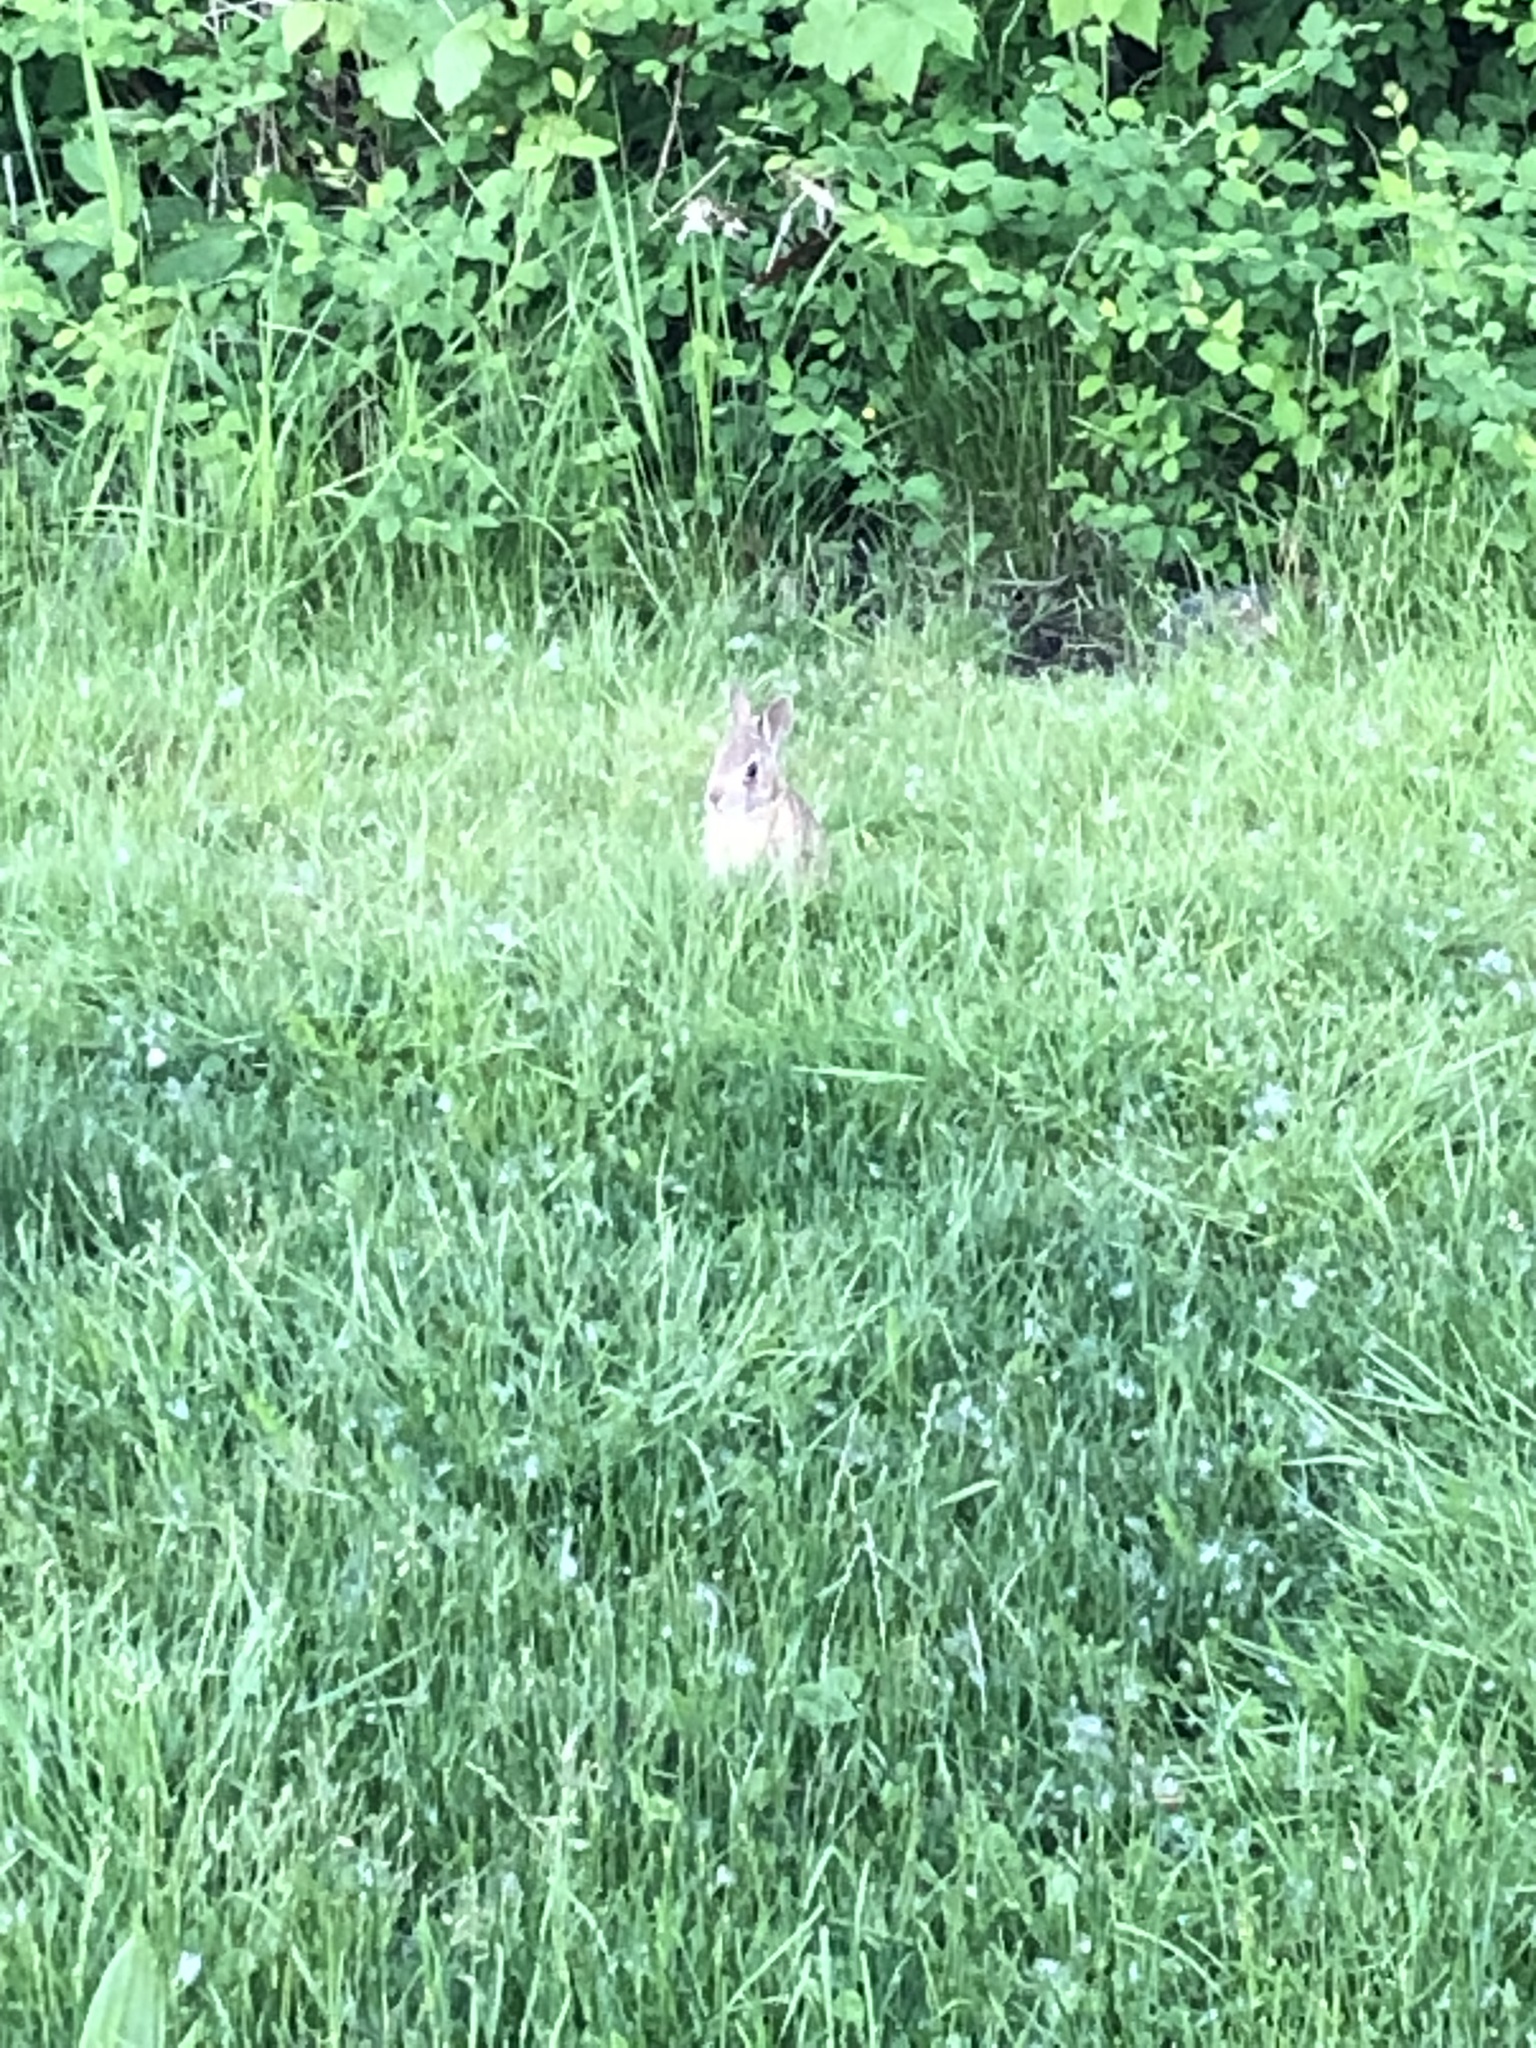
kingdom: Animalia
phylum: Chordata
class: Mammalia
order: Lagomorpha
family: Leporidae
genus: Sylvilagus
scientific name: Sylvilagus floridanus
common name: Eastern cottontail
